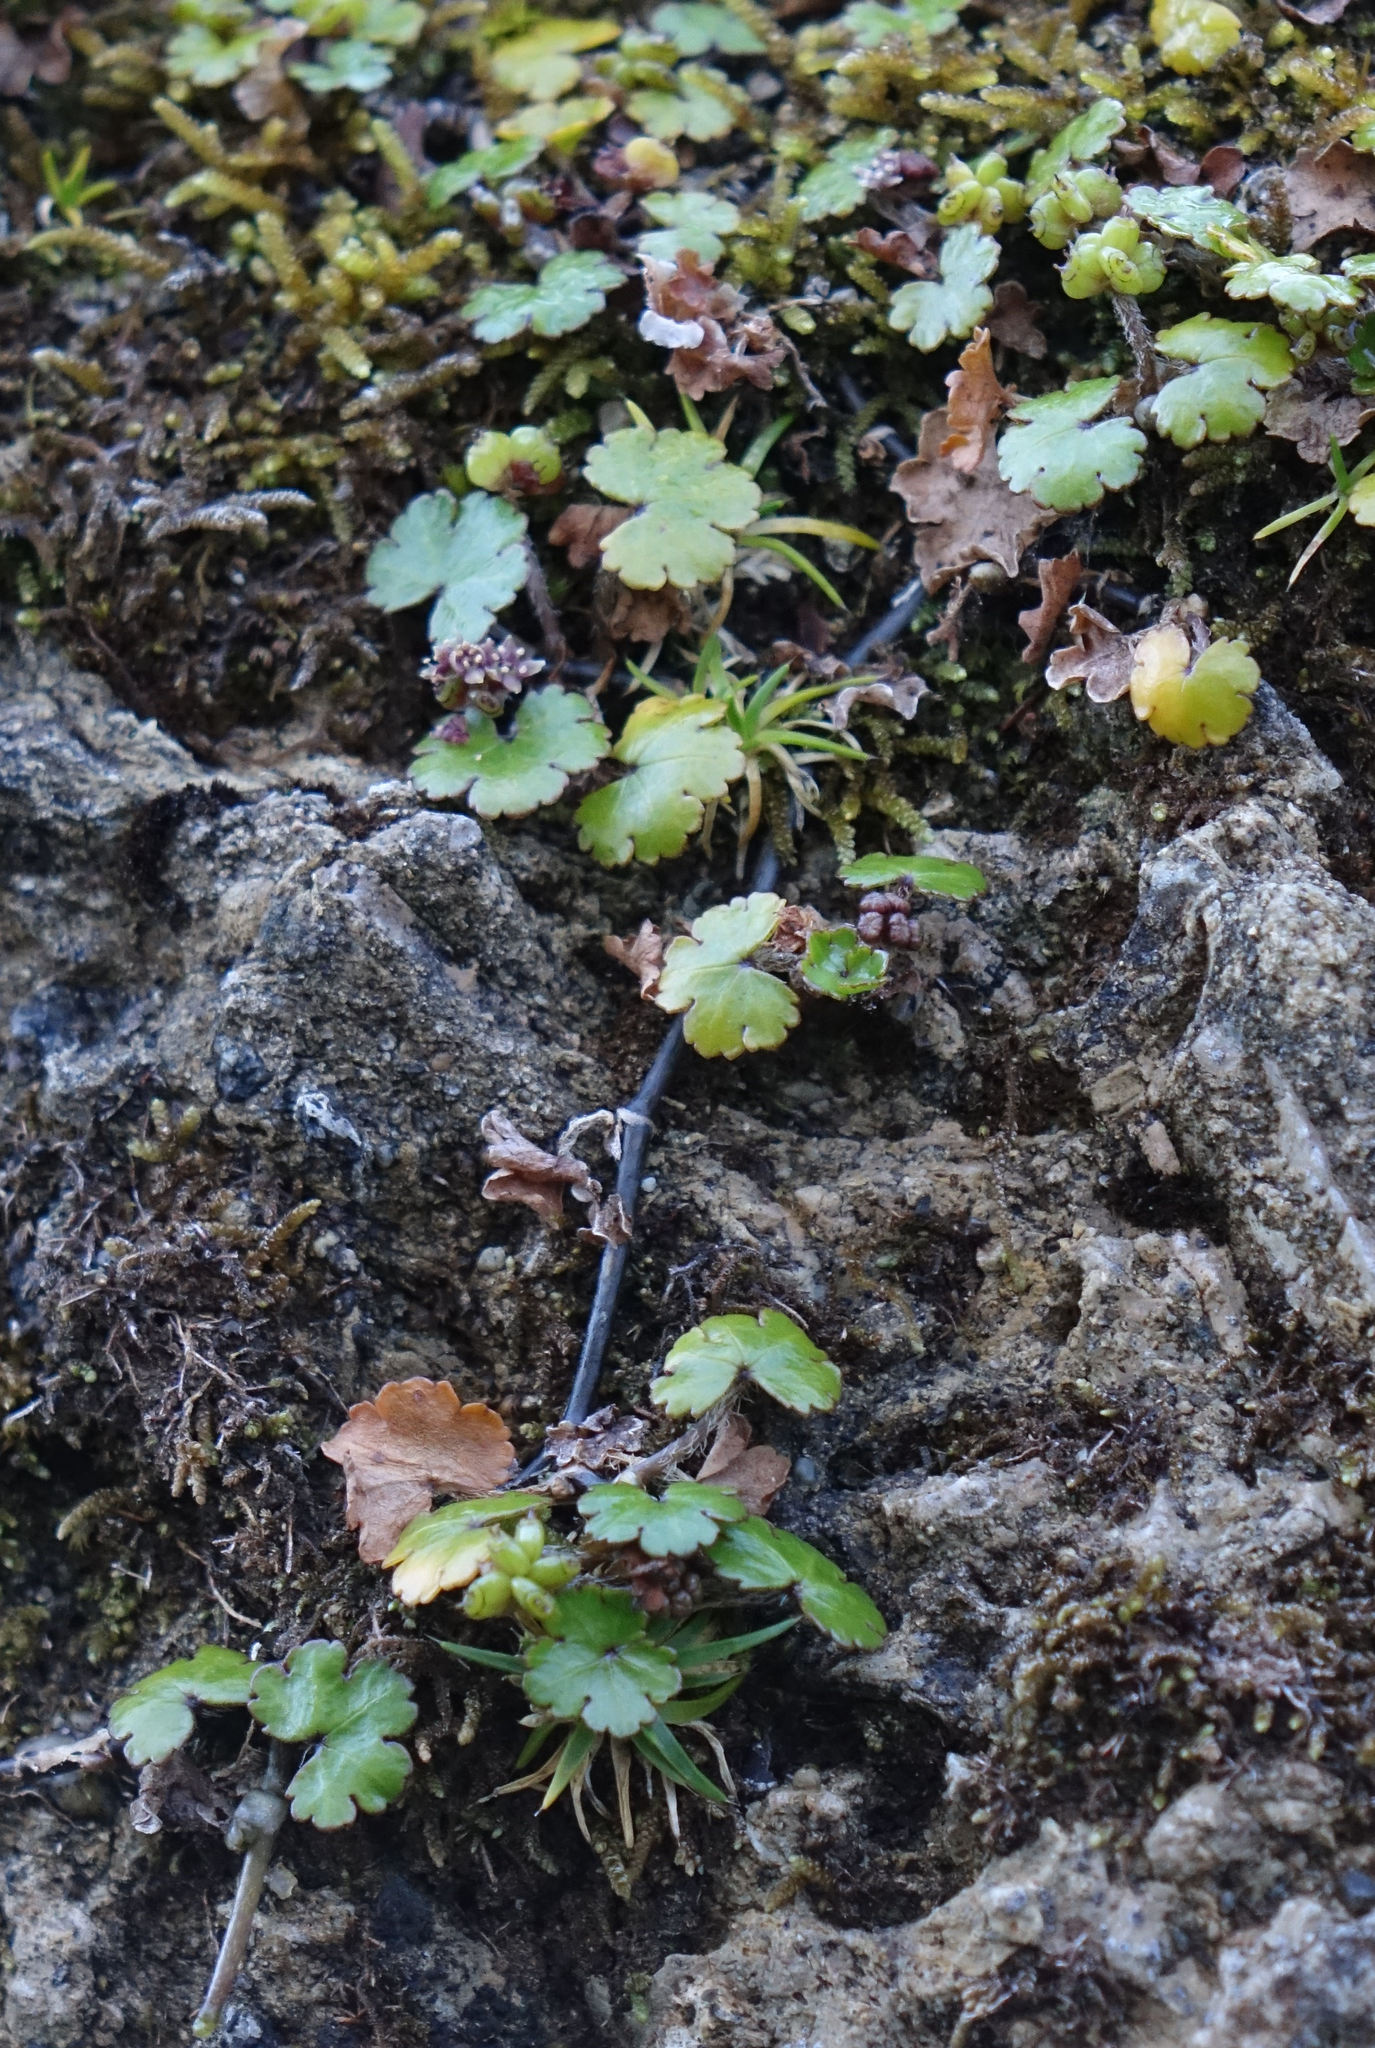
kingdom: Plantae
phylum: Tracheophyta
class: Magnoliopsida
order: Apiales
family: Araliaceae
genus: Hydrocotyle
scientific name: Hydrocotyle novae-zeelandiae
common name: New zealand pennywort
